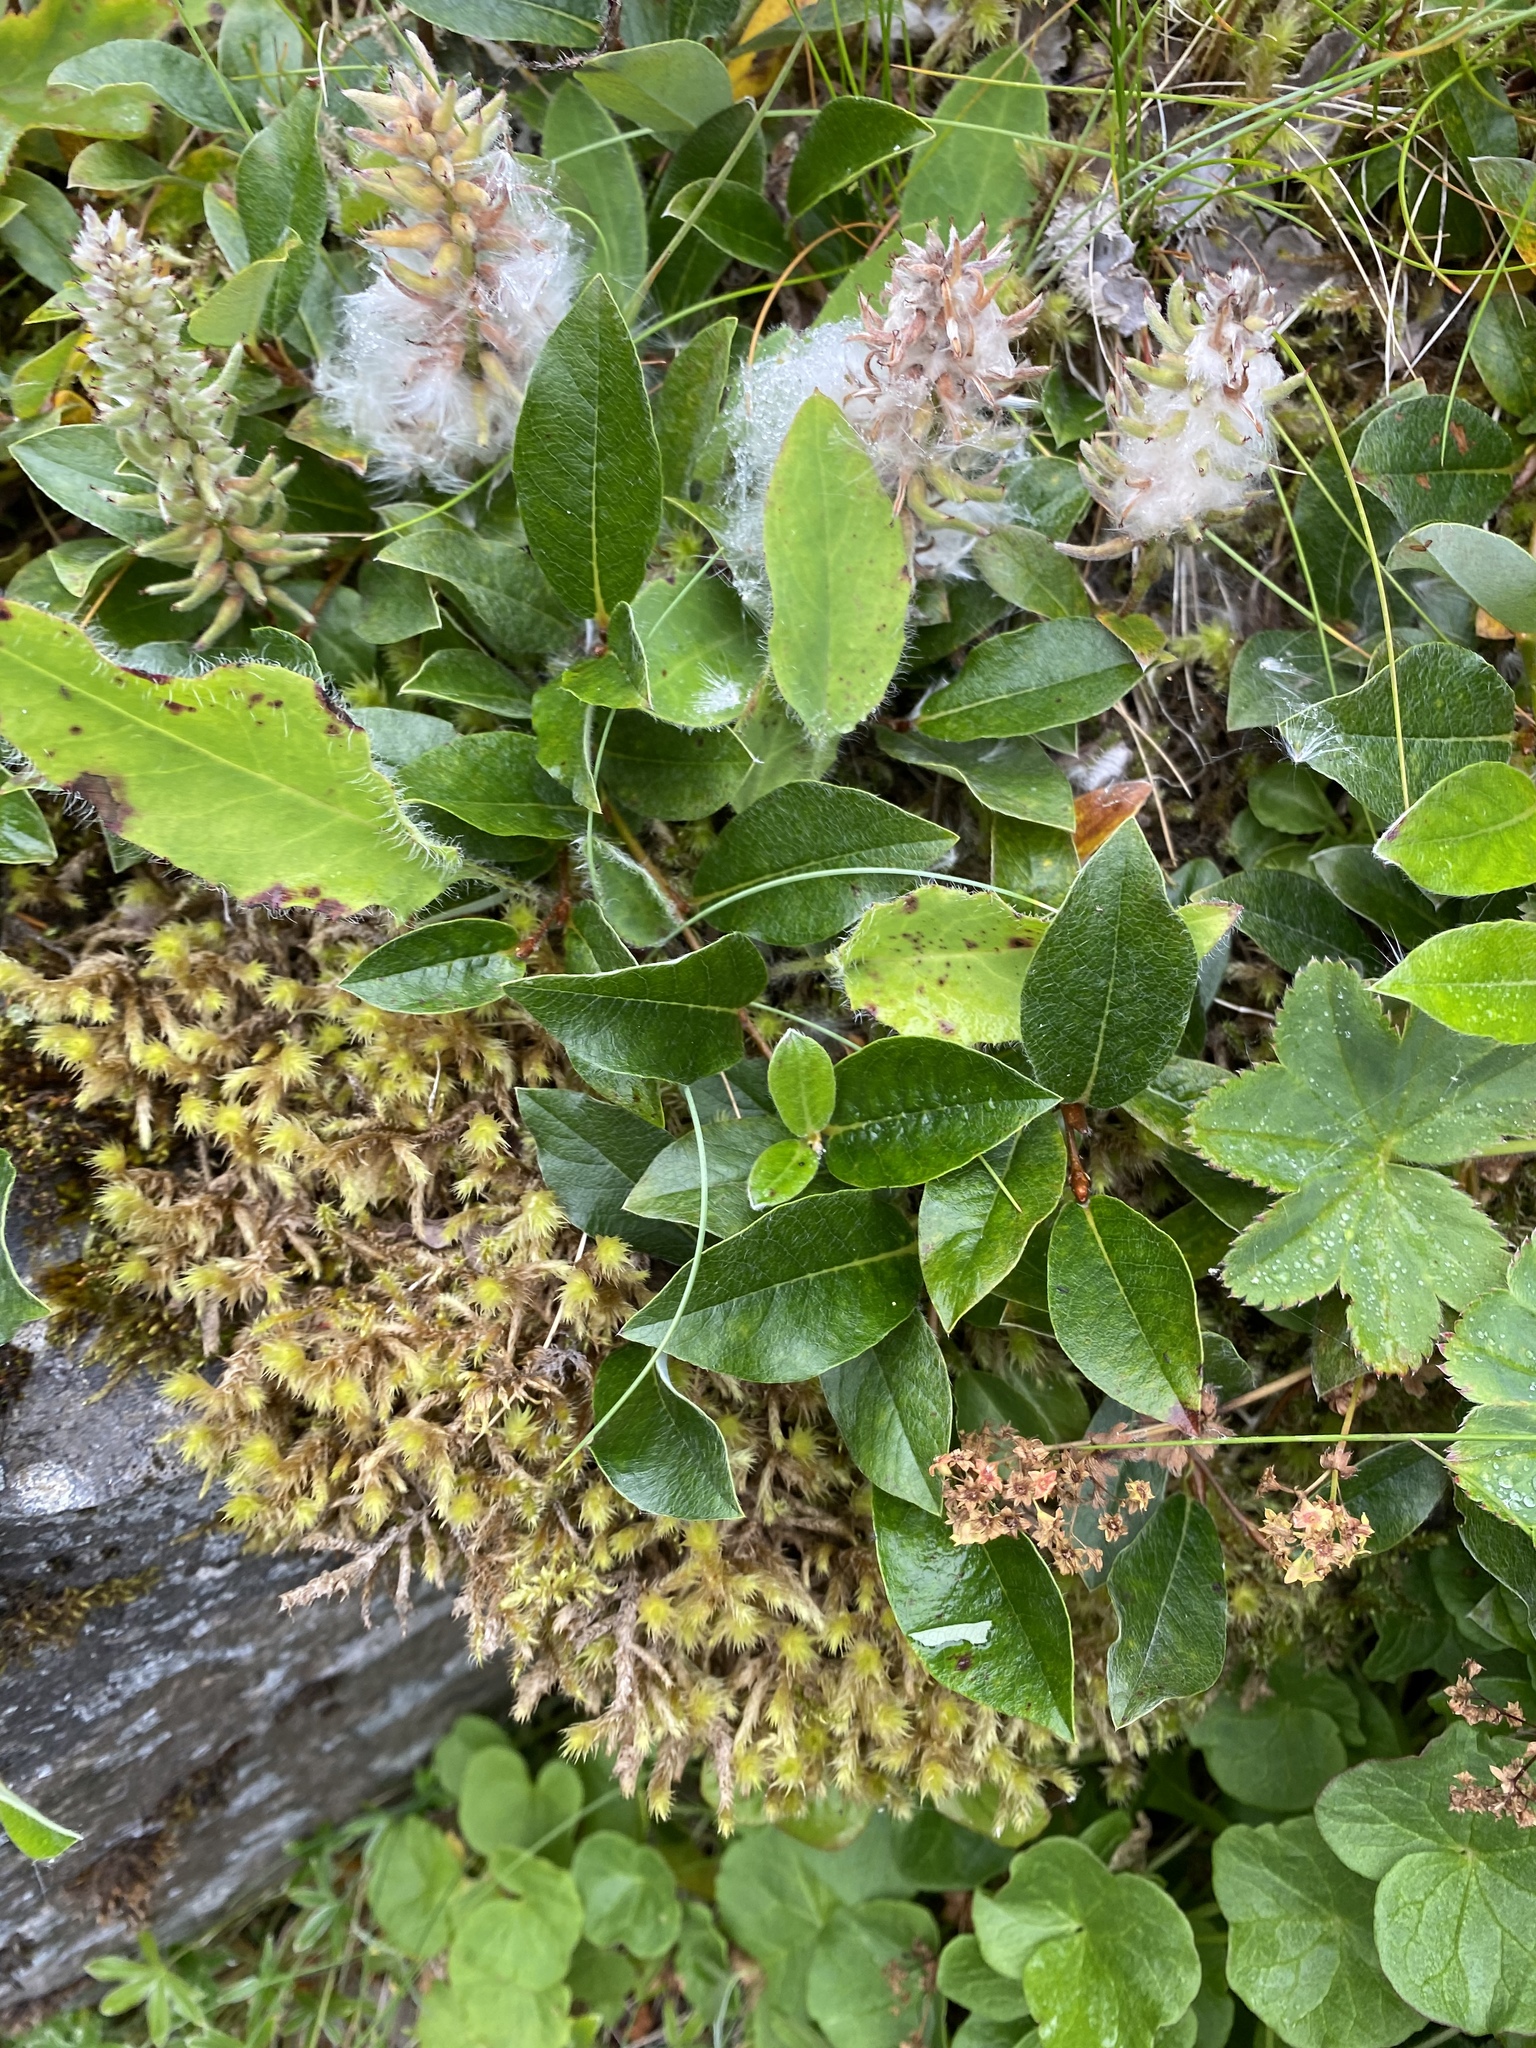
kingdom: Plantae
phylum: Tracheophyta
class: Magnoliopsida
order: Malpighiales
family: Salicaceae
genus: Salix
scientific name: Salix arctica
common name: Arctic willow
